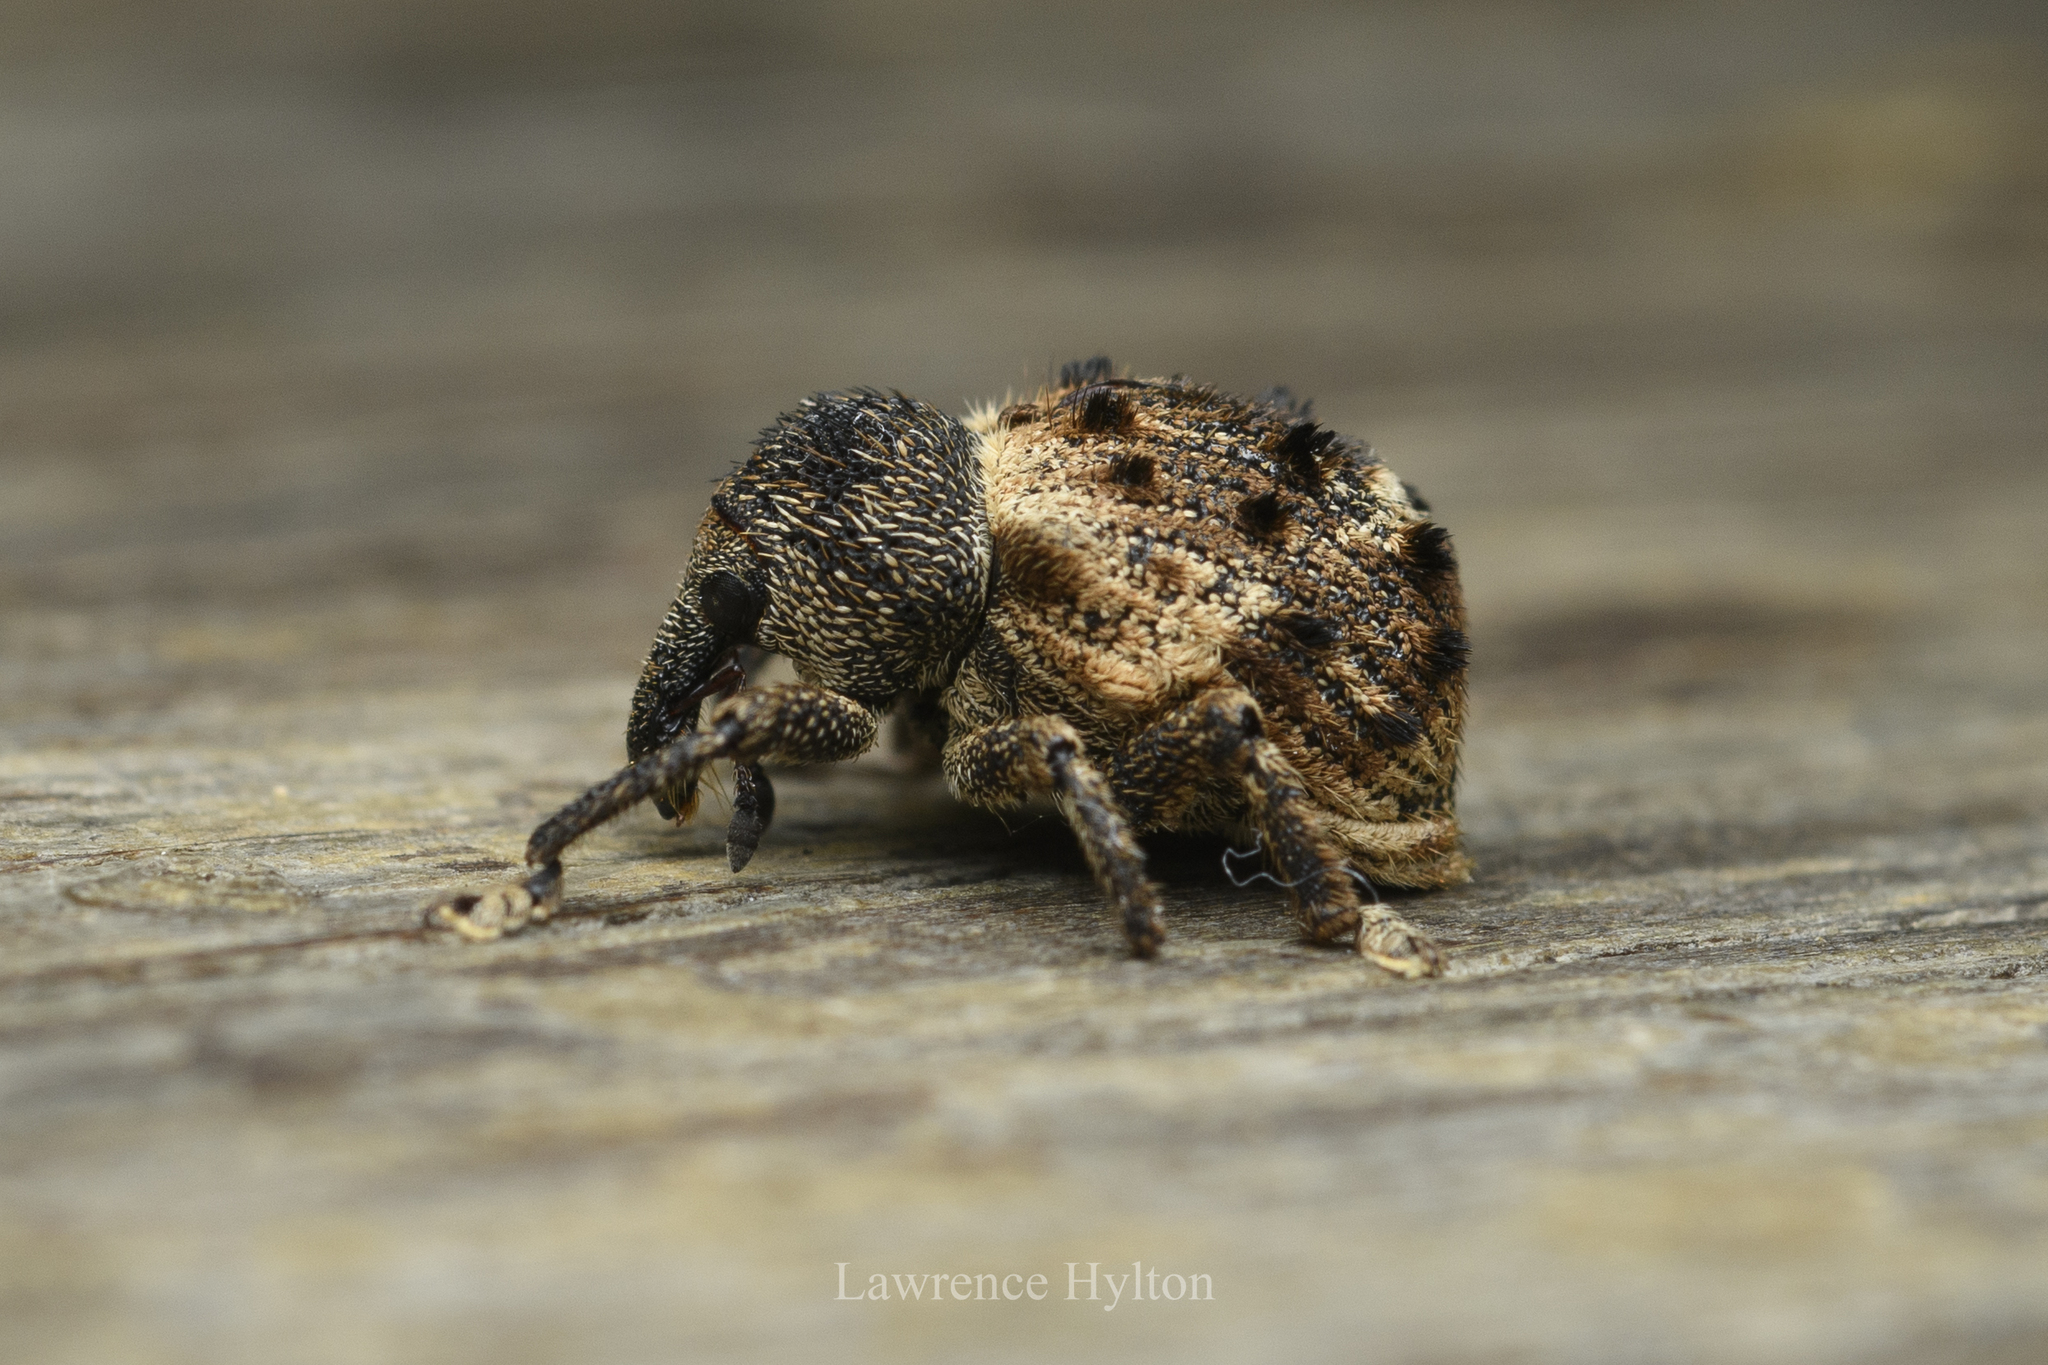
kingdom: Animalia
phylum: Arthropoda
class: Insecta
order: Coleoptera
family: Brachyceridae
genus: Desmidophorus
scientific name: Desmidophorus hebes
